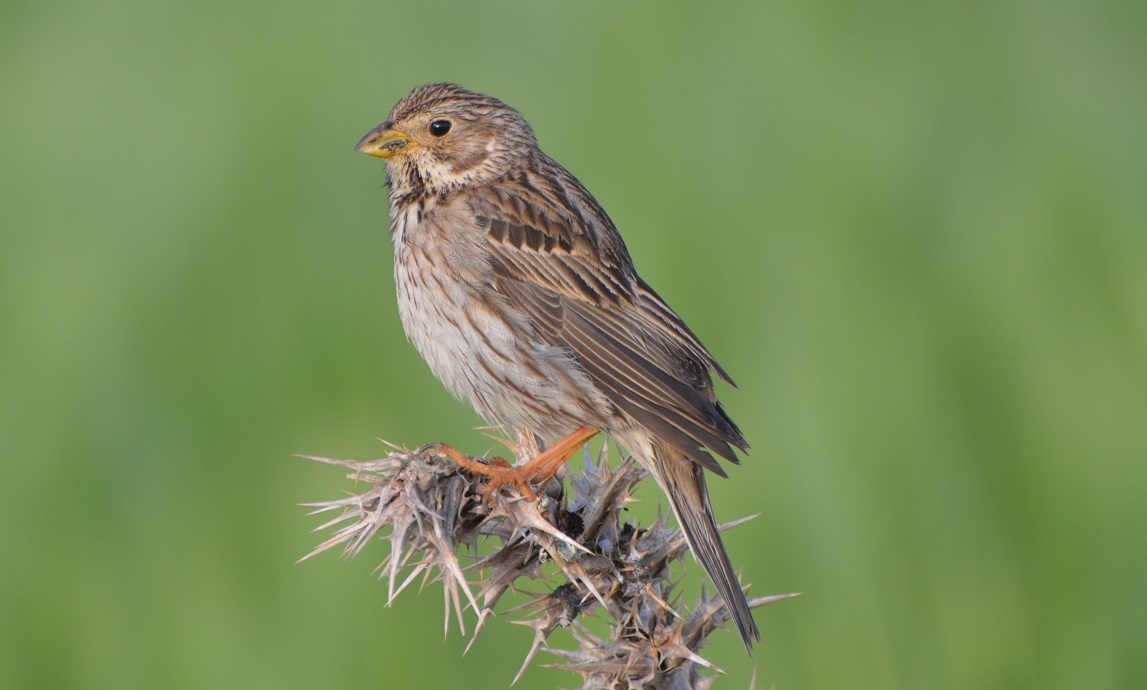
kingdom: Animalia
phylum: Chordata
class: Aves
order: Passeriformes
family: Emberizidae
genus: Emberiza
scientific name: Emberiza calandra
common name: Corn bunting
